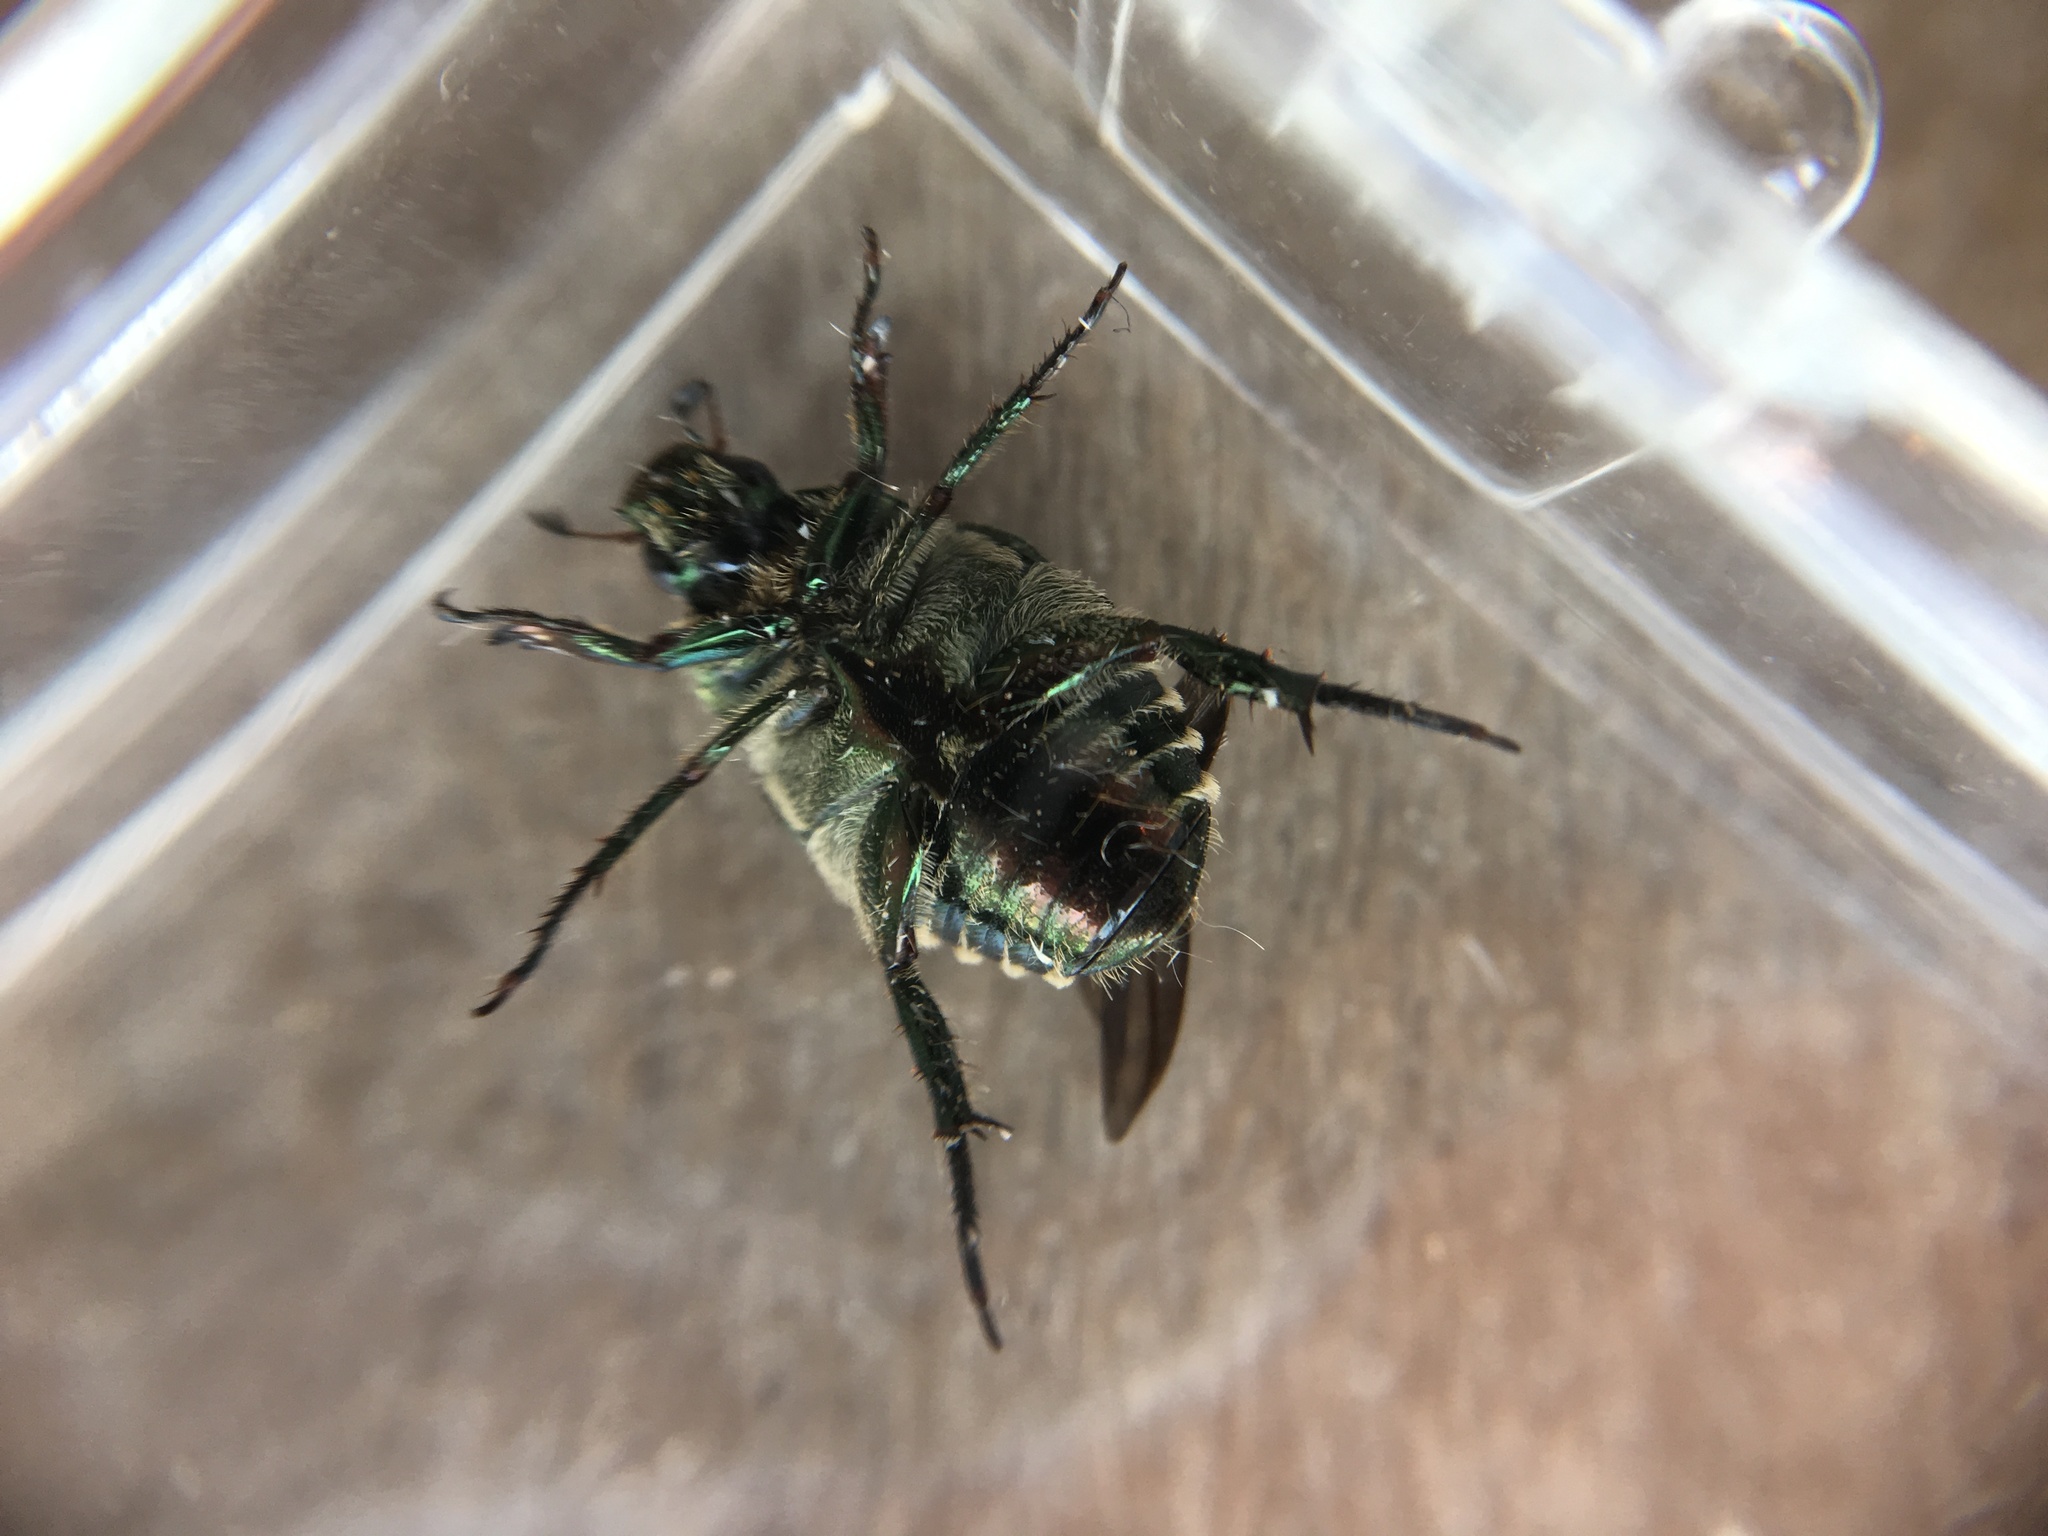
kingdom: Animalia
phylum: Arthropoda
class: Insecta
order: Coleoptera
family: Scarabaeidae
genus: Popillia
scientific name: Popillia japonica
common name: Japanese beetle
